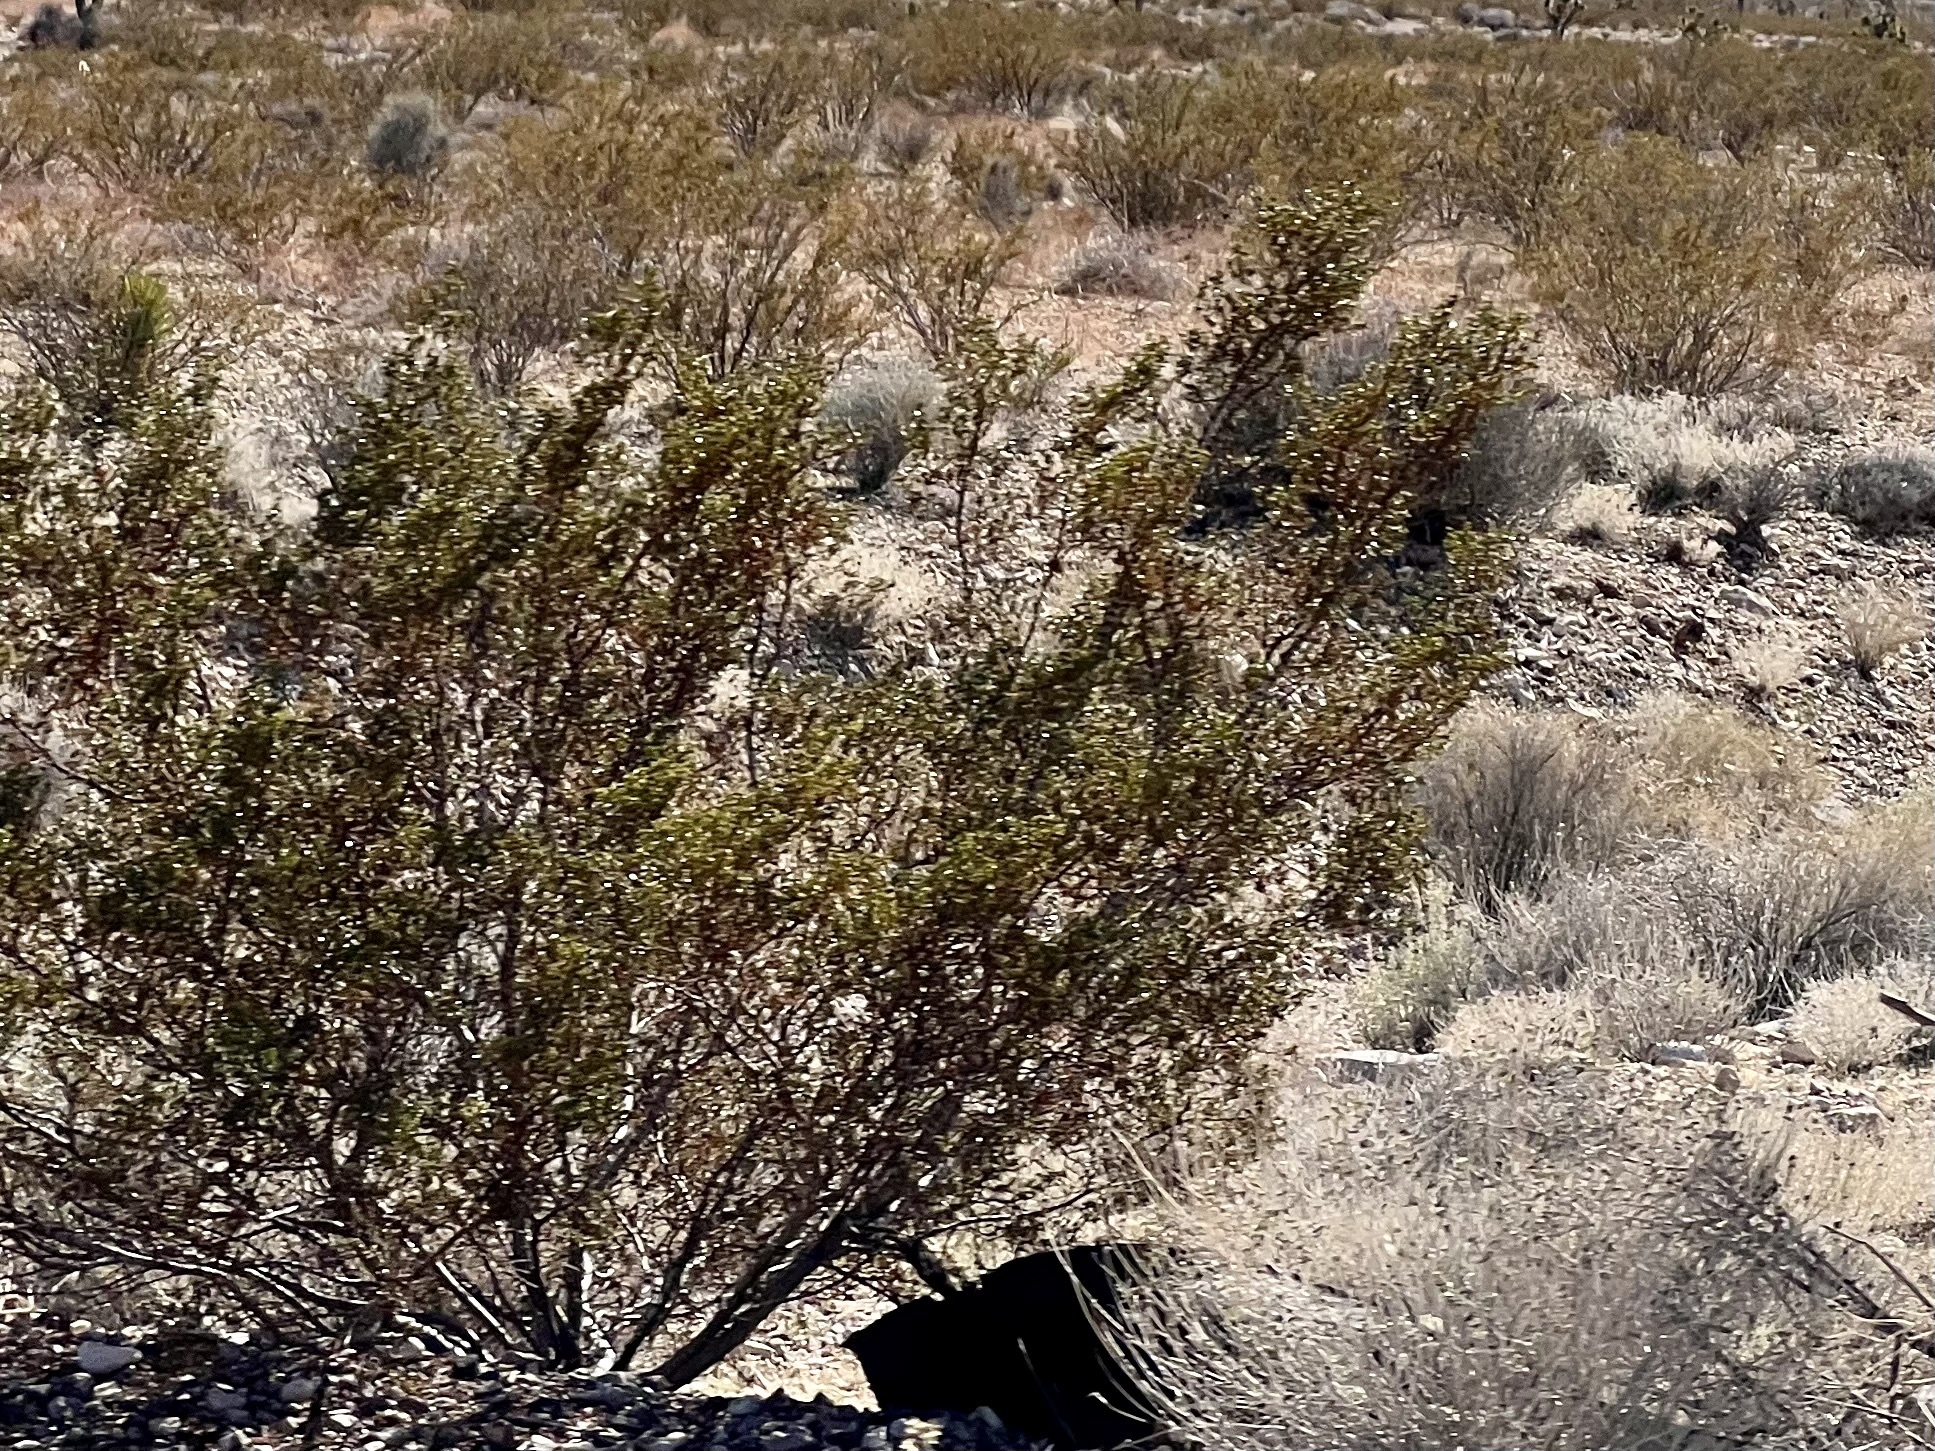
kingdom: Plantae
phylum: Tracheophyta
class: Magnoliopsida
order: Zygophyllales
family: Zygophyllaceae
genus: Larrea
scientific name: Larrea tridentata
